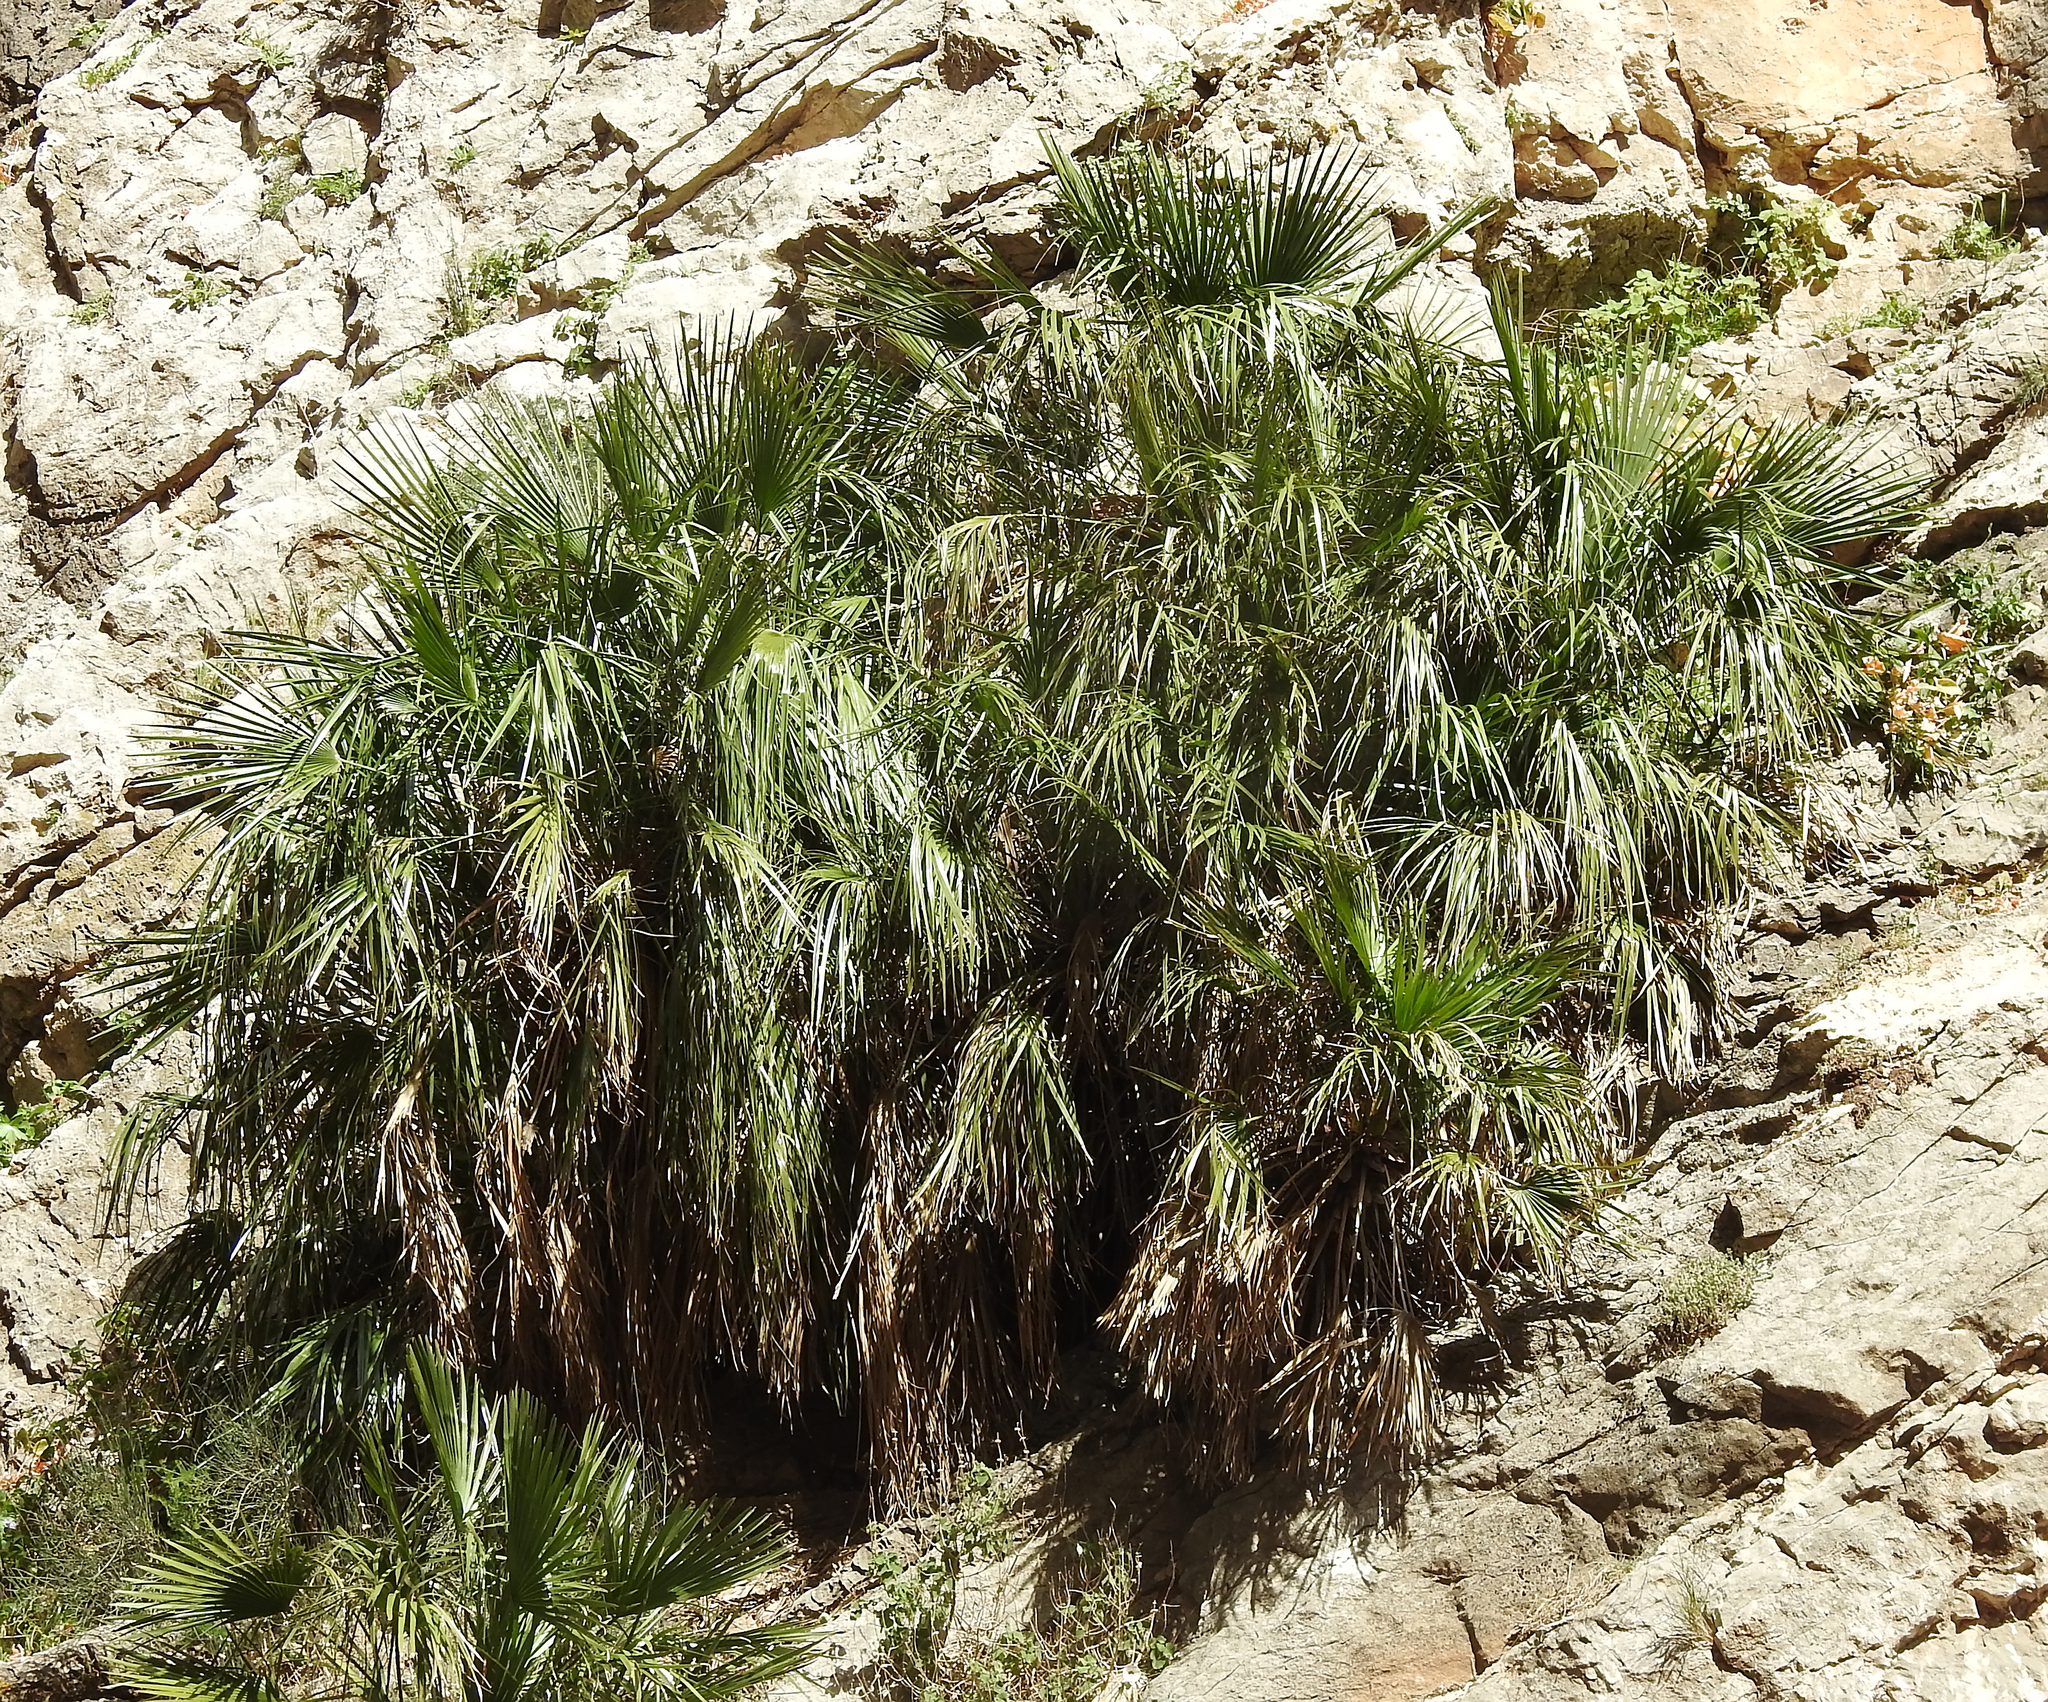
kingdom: Plantae
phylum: Tracheophyta
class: Liliopsida
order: Arecales
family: Arecaceae
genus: Chamaerops
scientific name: Chamaerops humilis
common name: Dwarf fan palm
